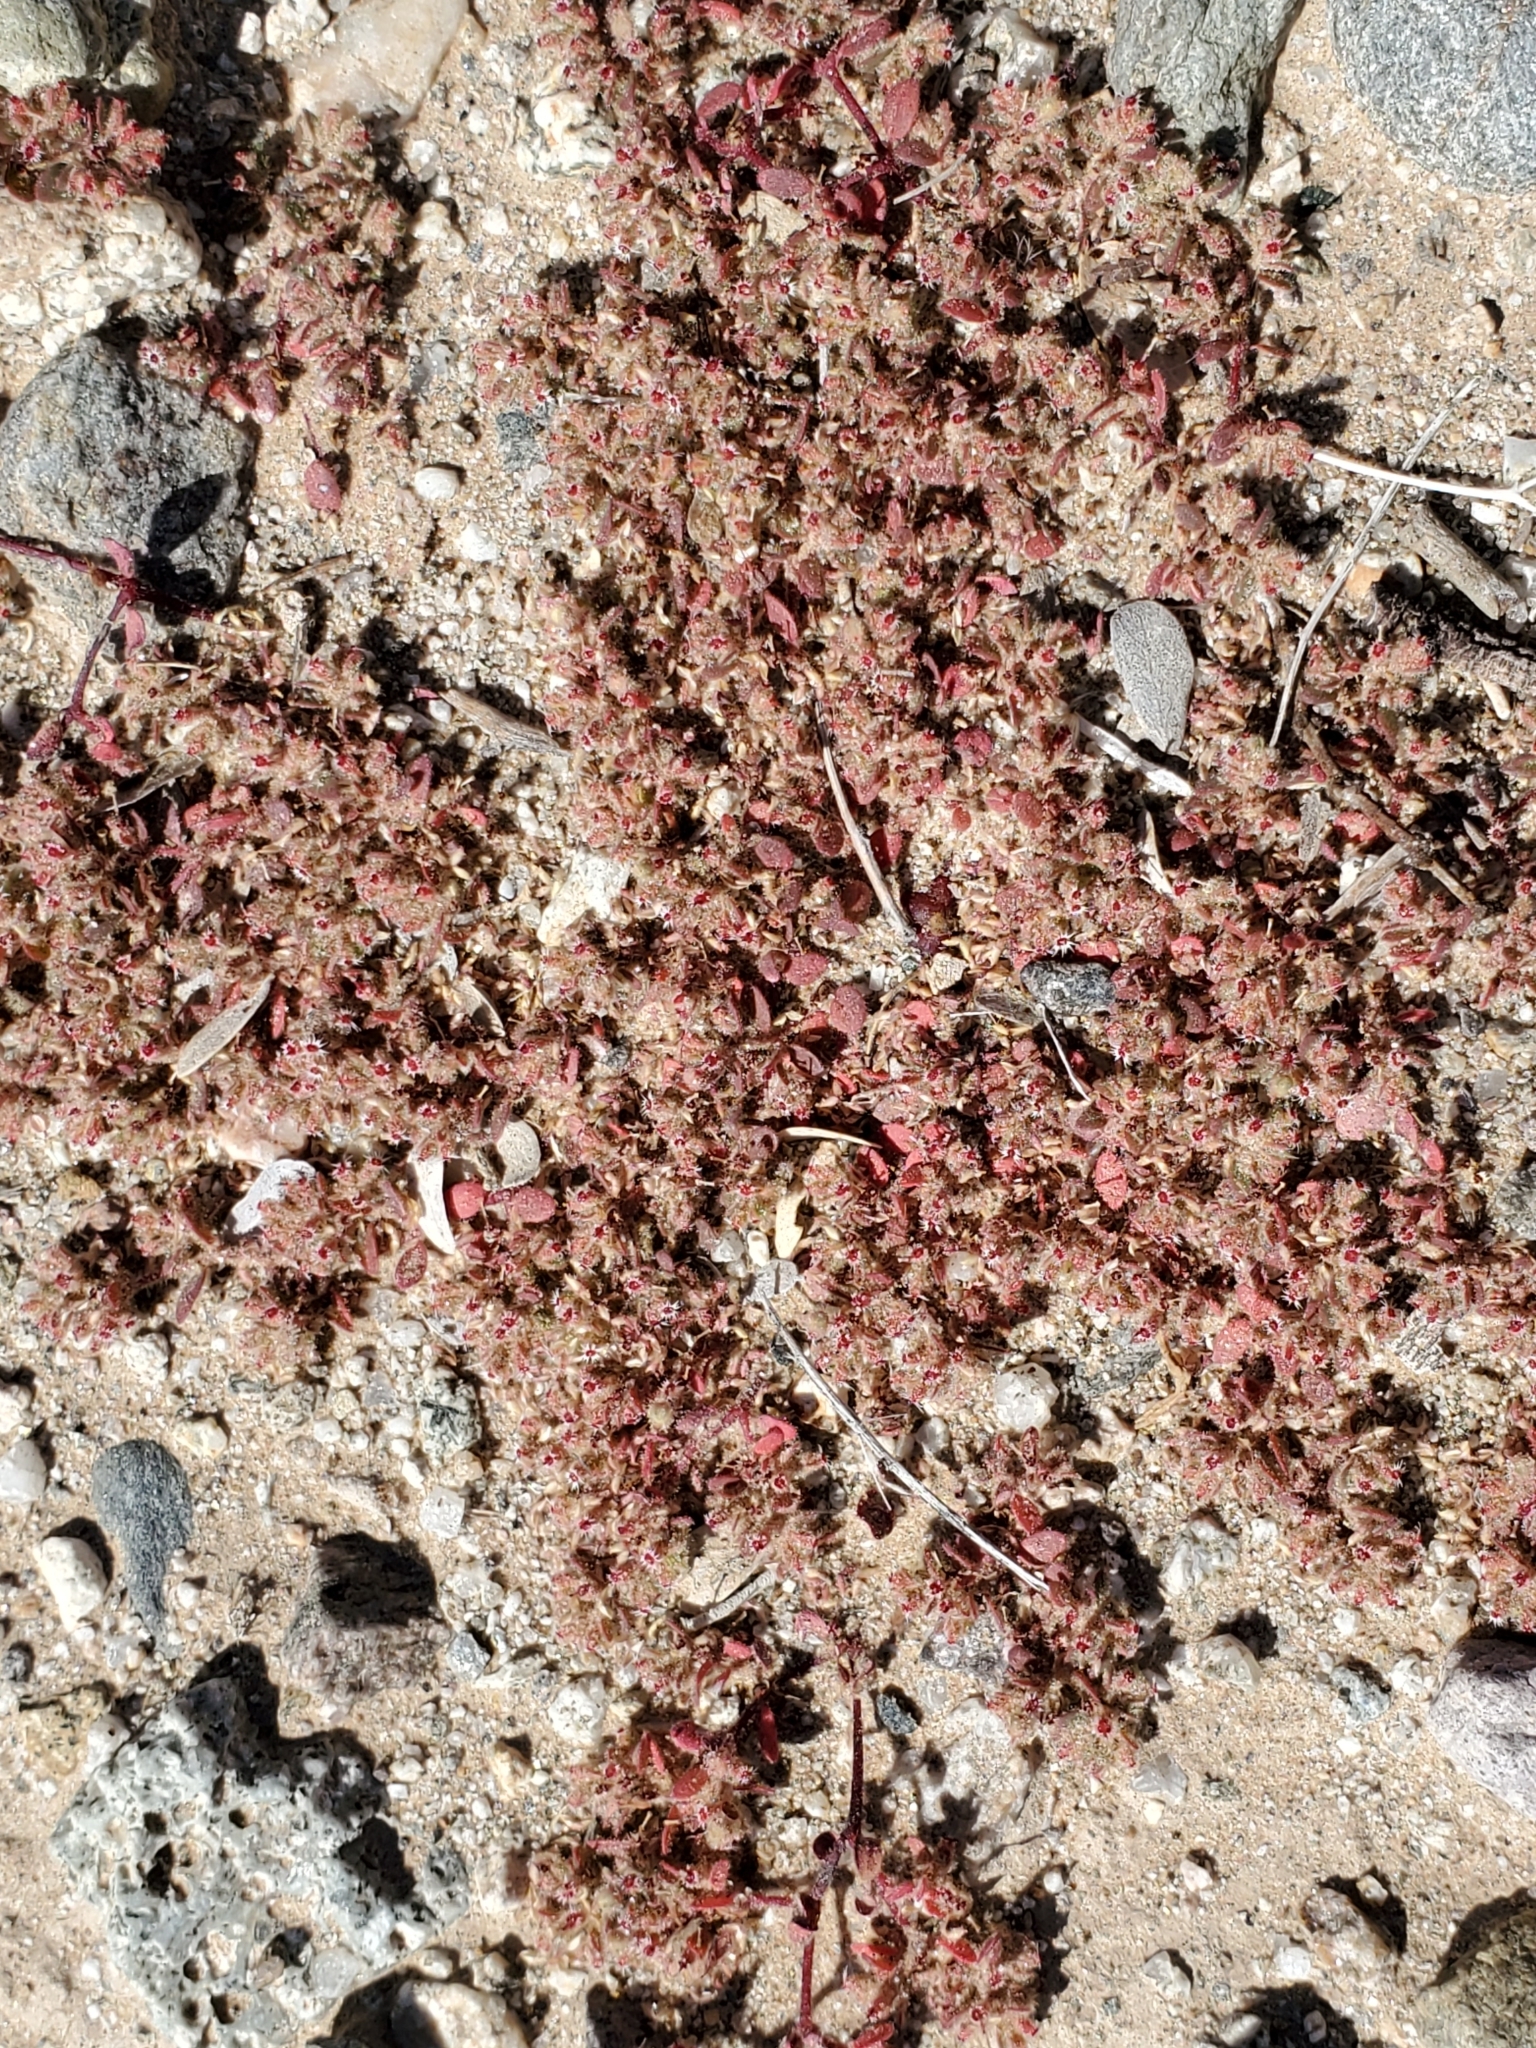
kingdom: Plantae
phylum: Tracheophyta
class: Magnoliopsida
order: Malpighiales
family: Euphorbiaceae
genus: Euphorbia
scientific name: Euphorbia setiloba
